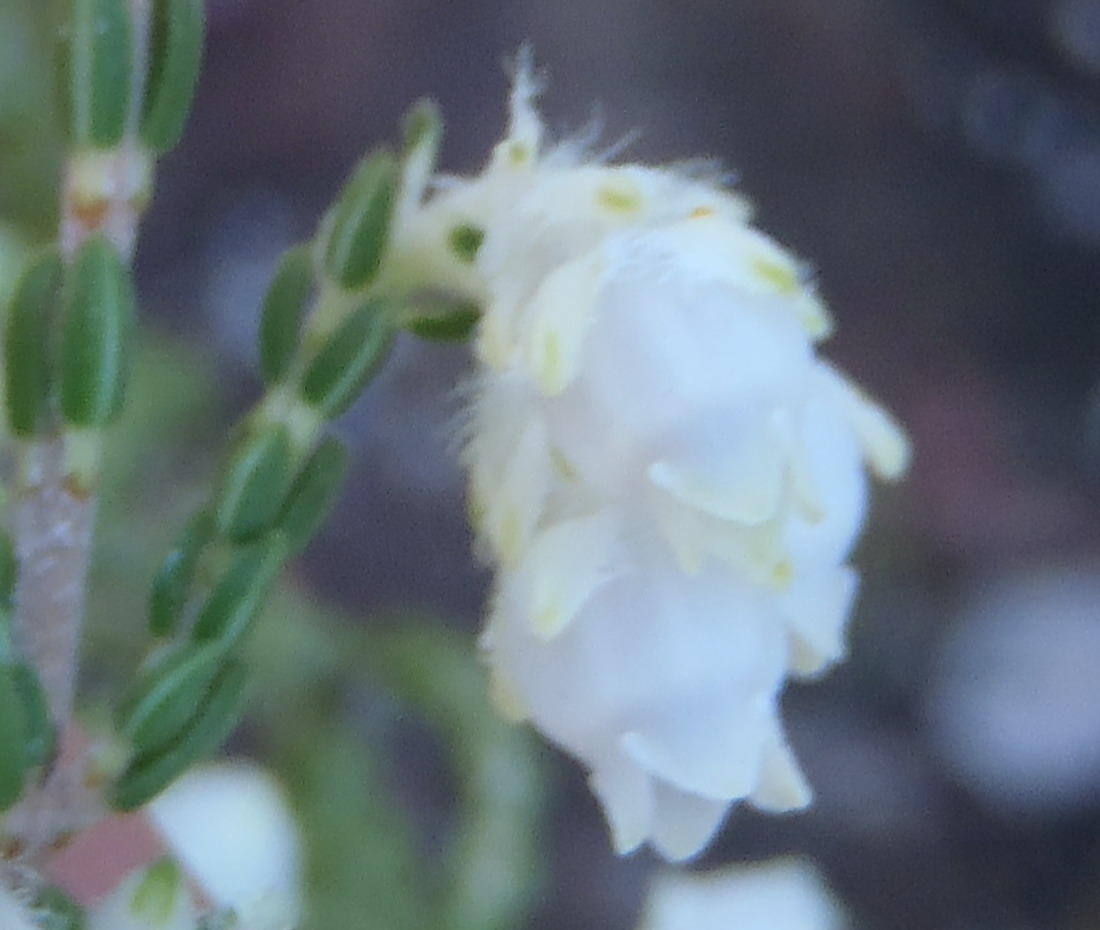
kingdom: Plantae
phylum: Tracheophyta
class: Magnoliopsida
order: Ericales
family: Ericaceae
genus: Erica
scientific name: Erica fimbriata
